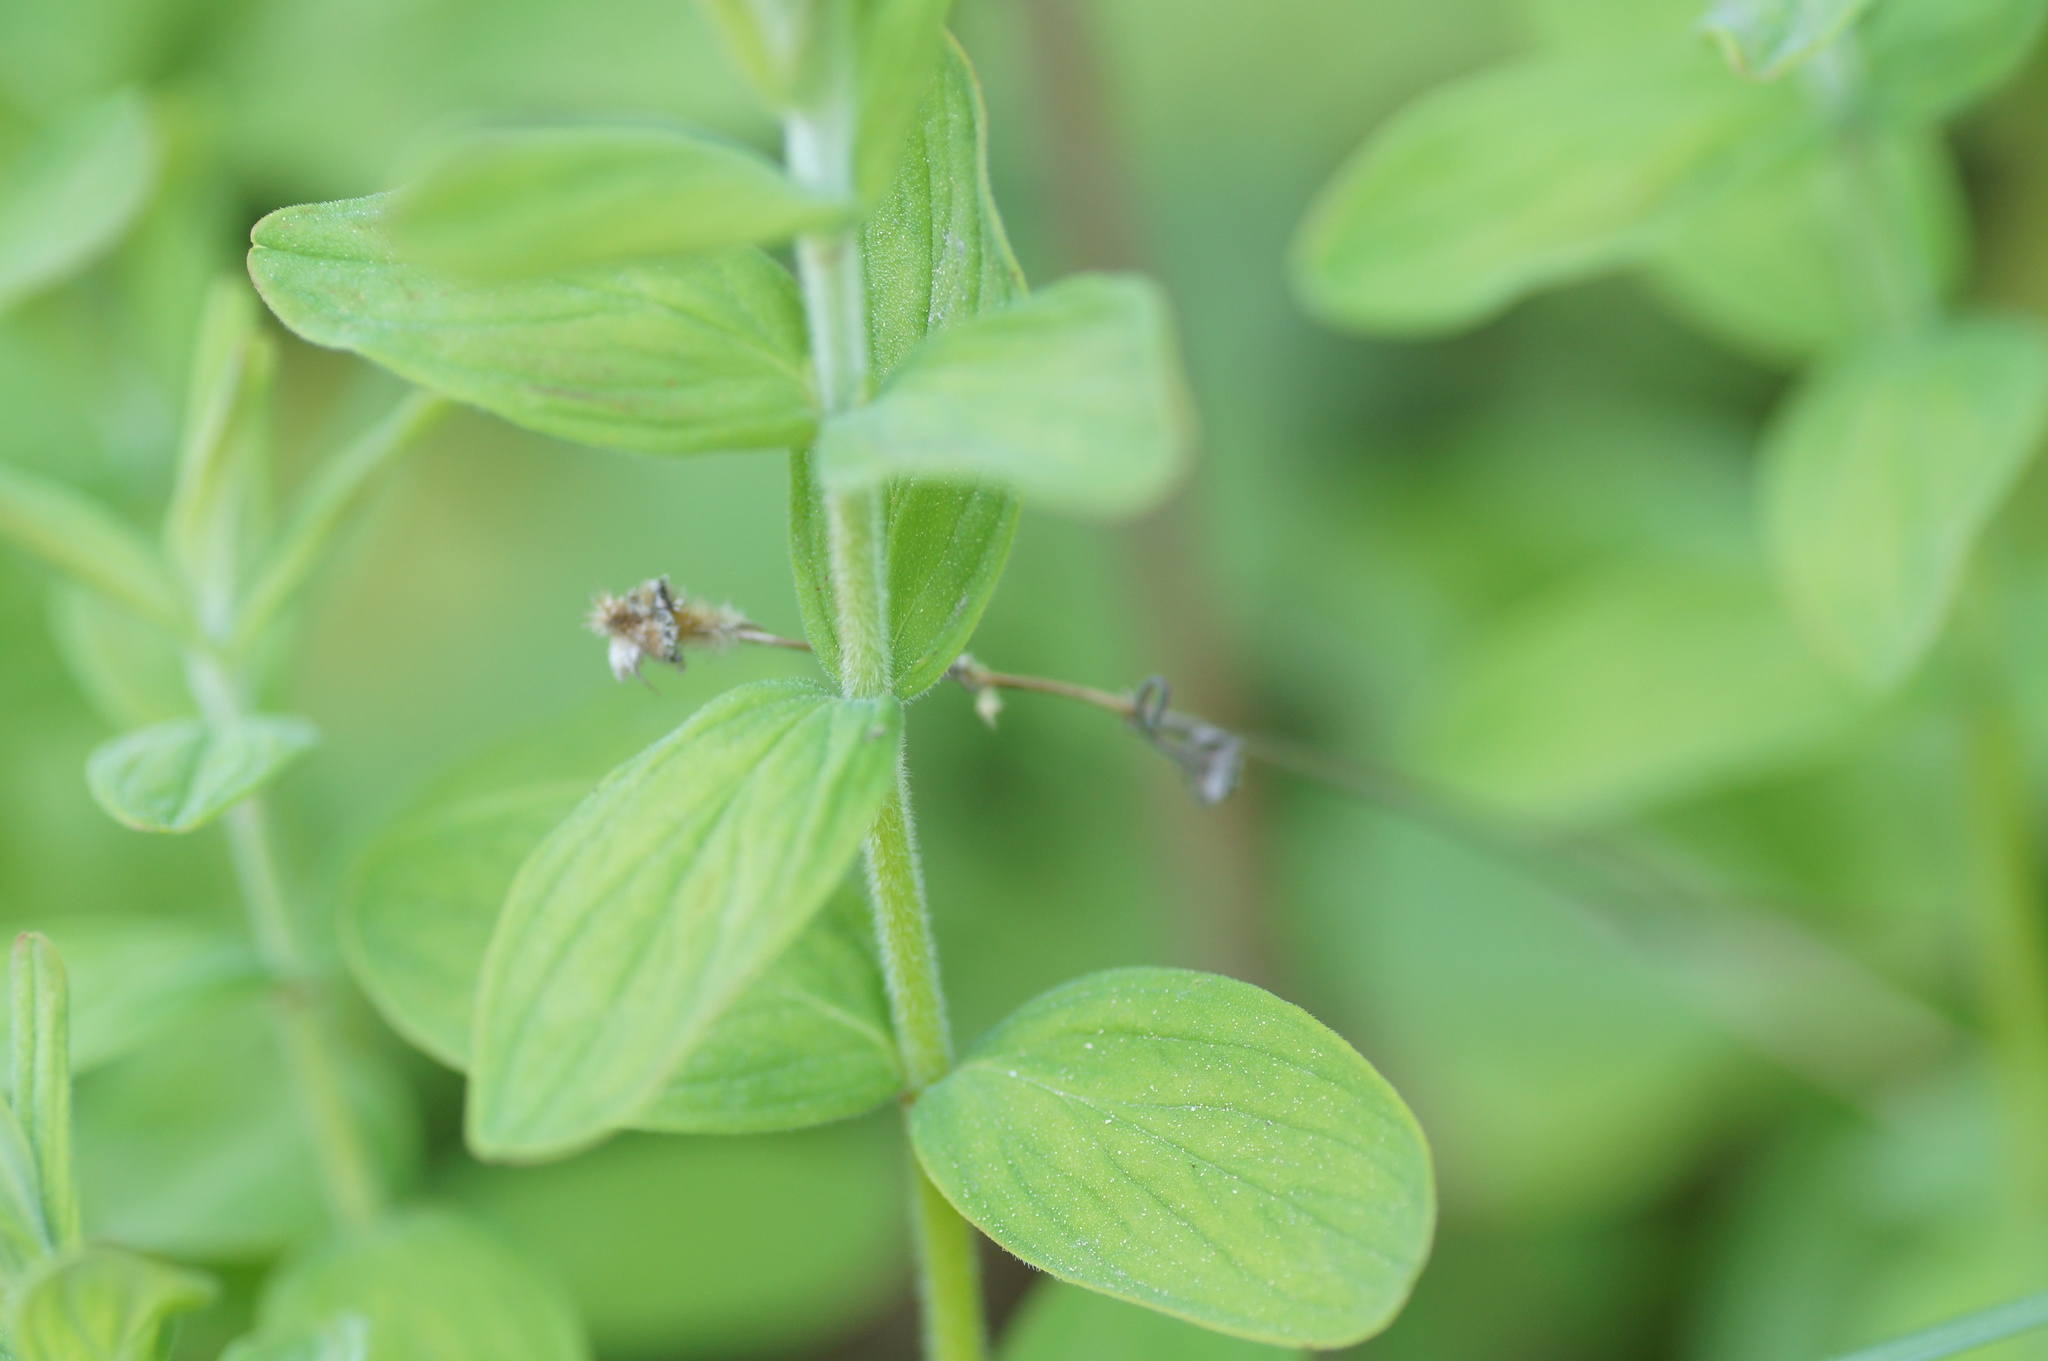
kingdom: Plantae
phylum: Tracheophyta
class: Magnoliopsida
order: Malpighiales
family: Hypericaceae
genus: Hypericum
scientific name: Hypericum hirsutum
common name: Hairy st. john's-wort
